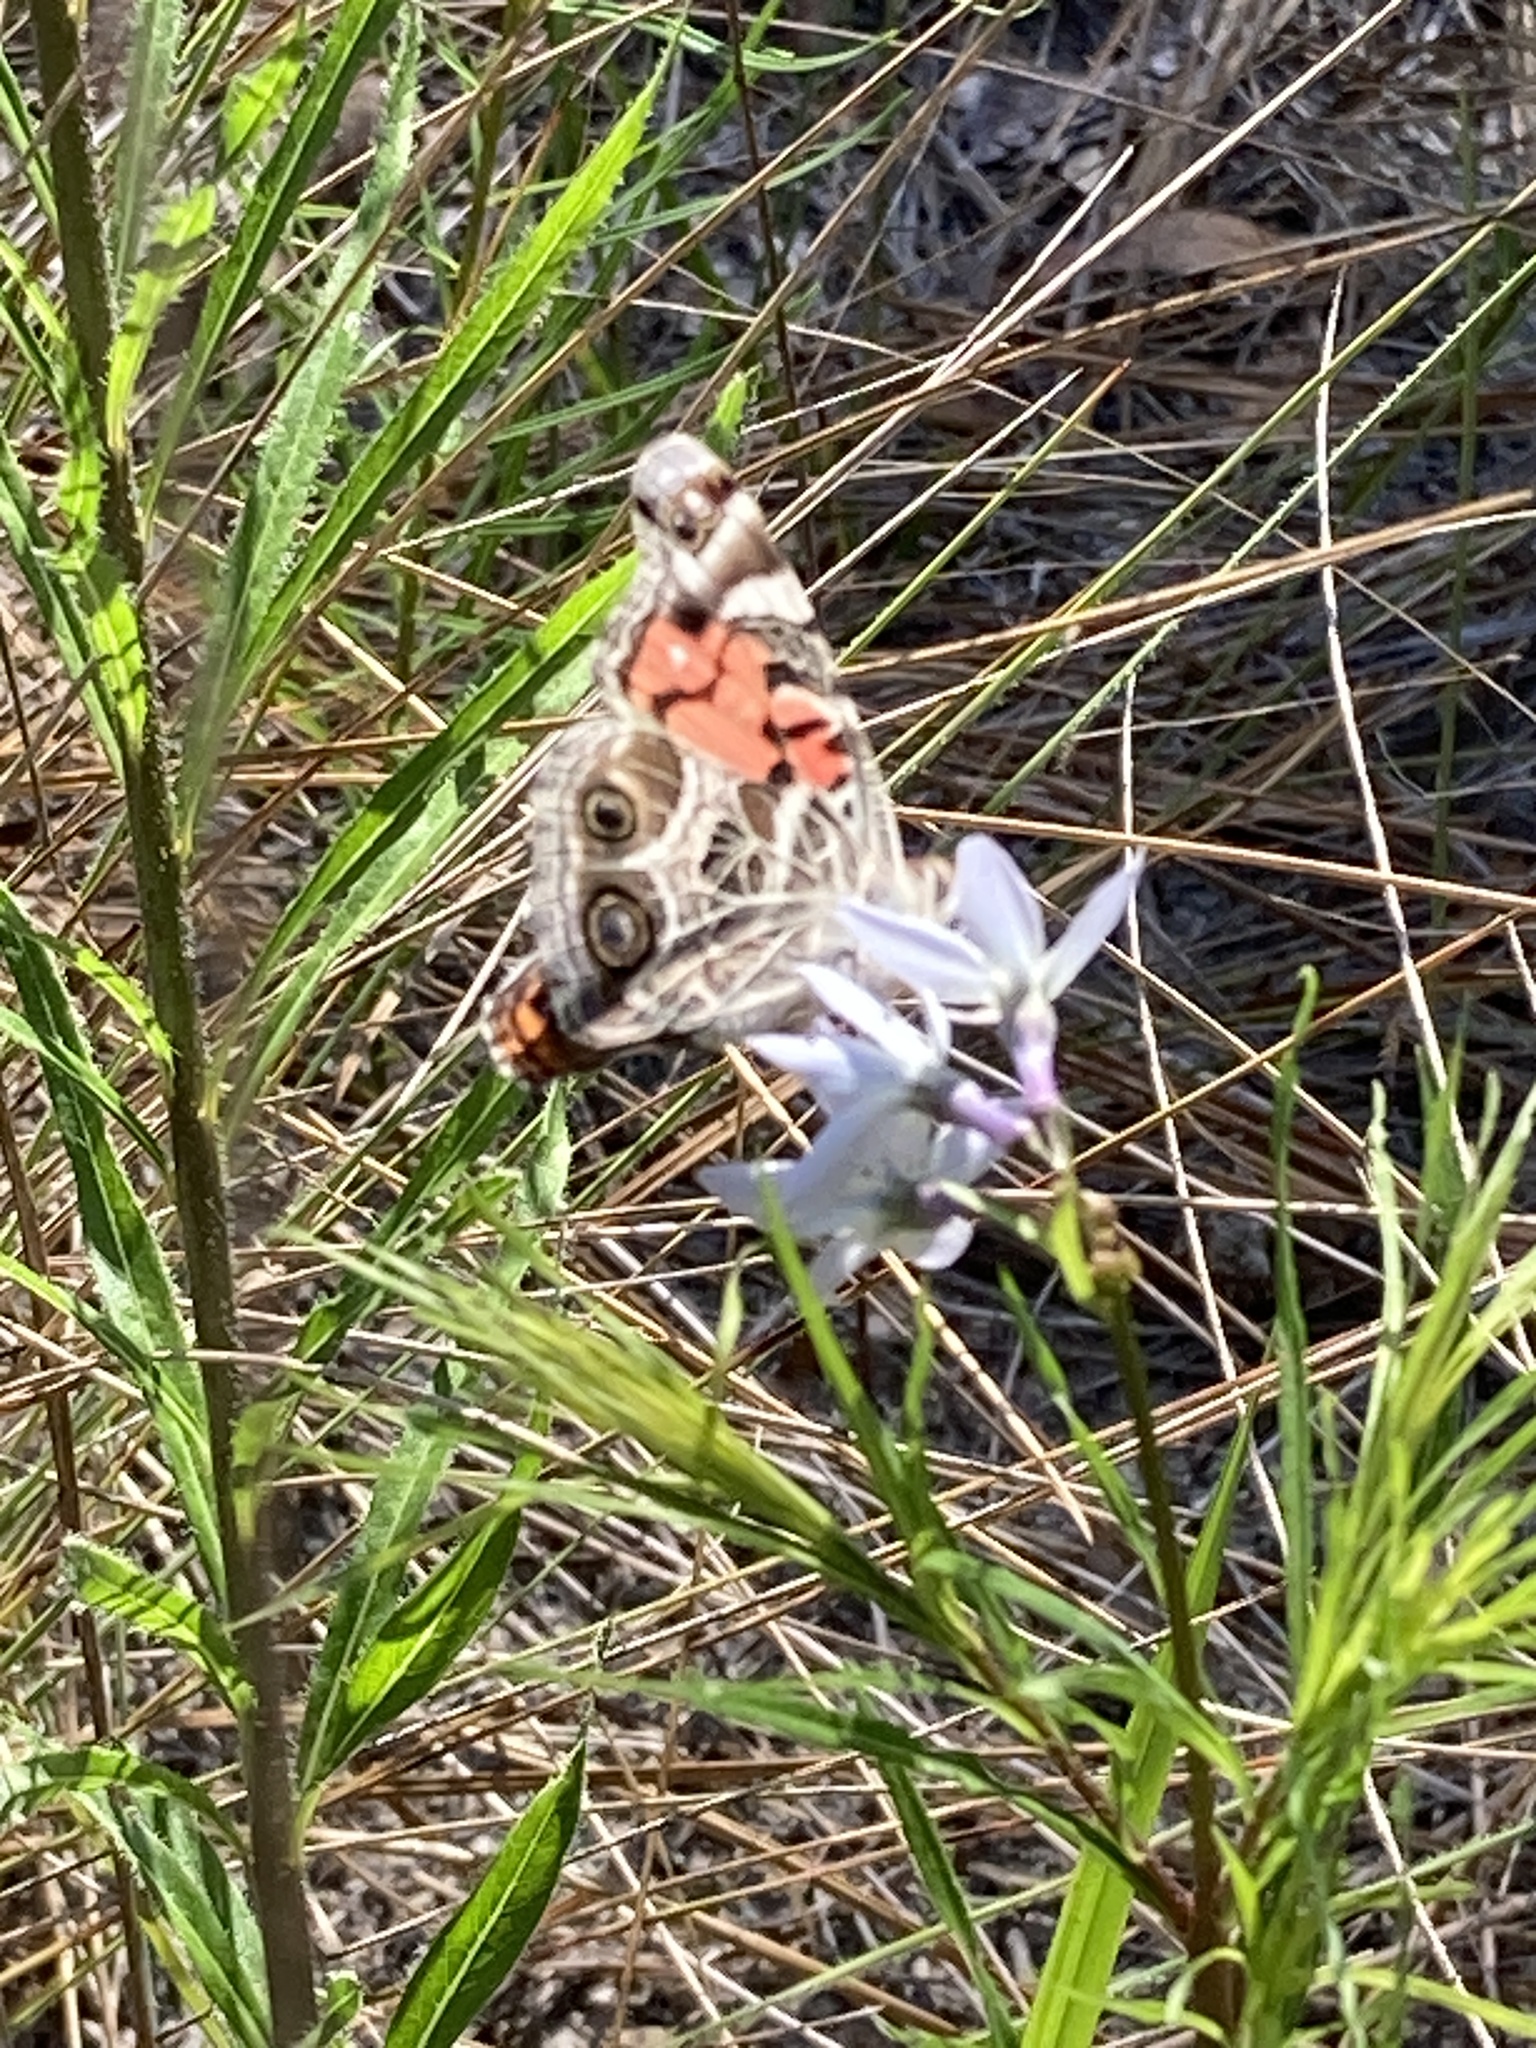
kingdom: Animalia
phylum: Arthropoda
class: Insecta
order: Lepidoptera
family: Nymphalidae
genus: Vanessa
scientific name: Vanessa virginiensis
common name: American lady
